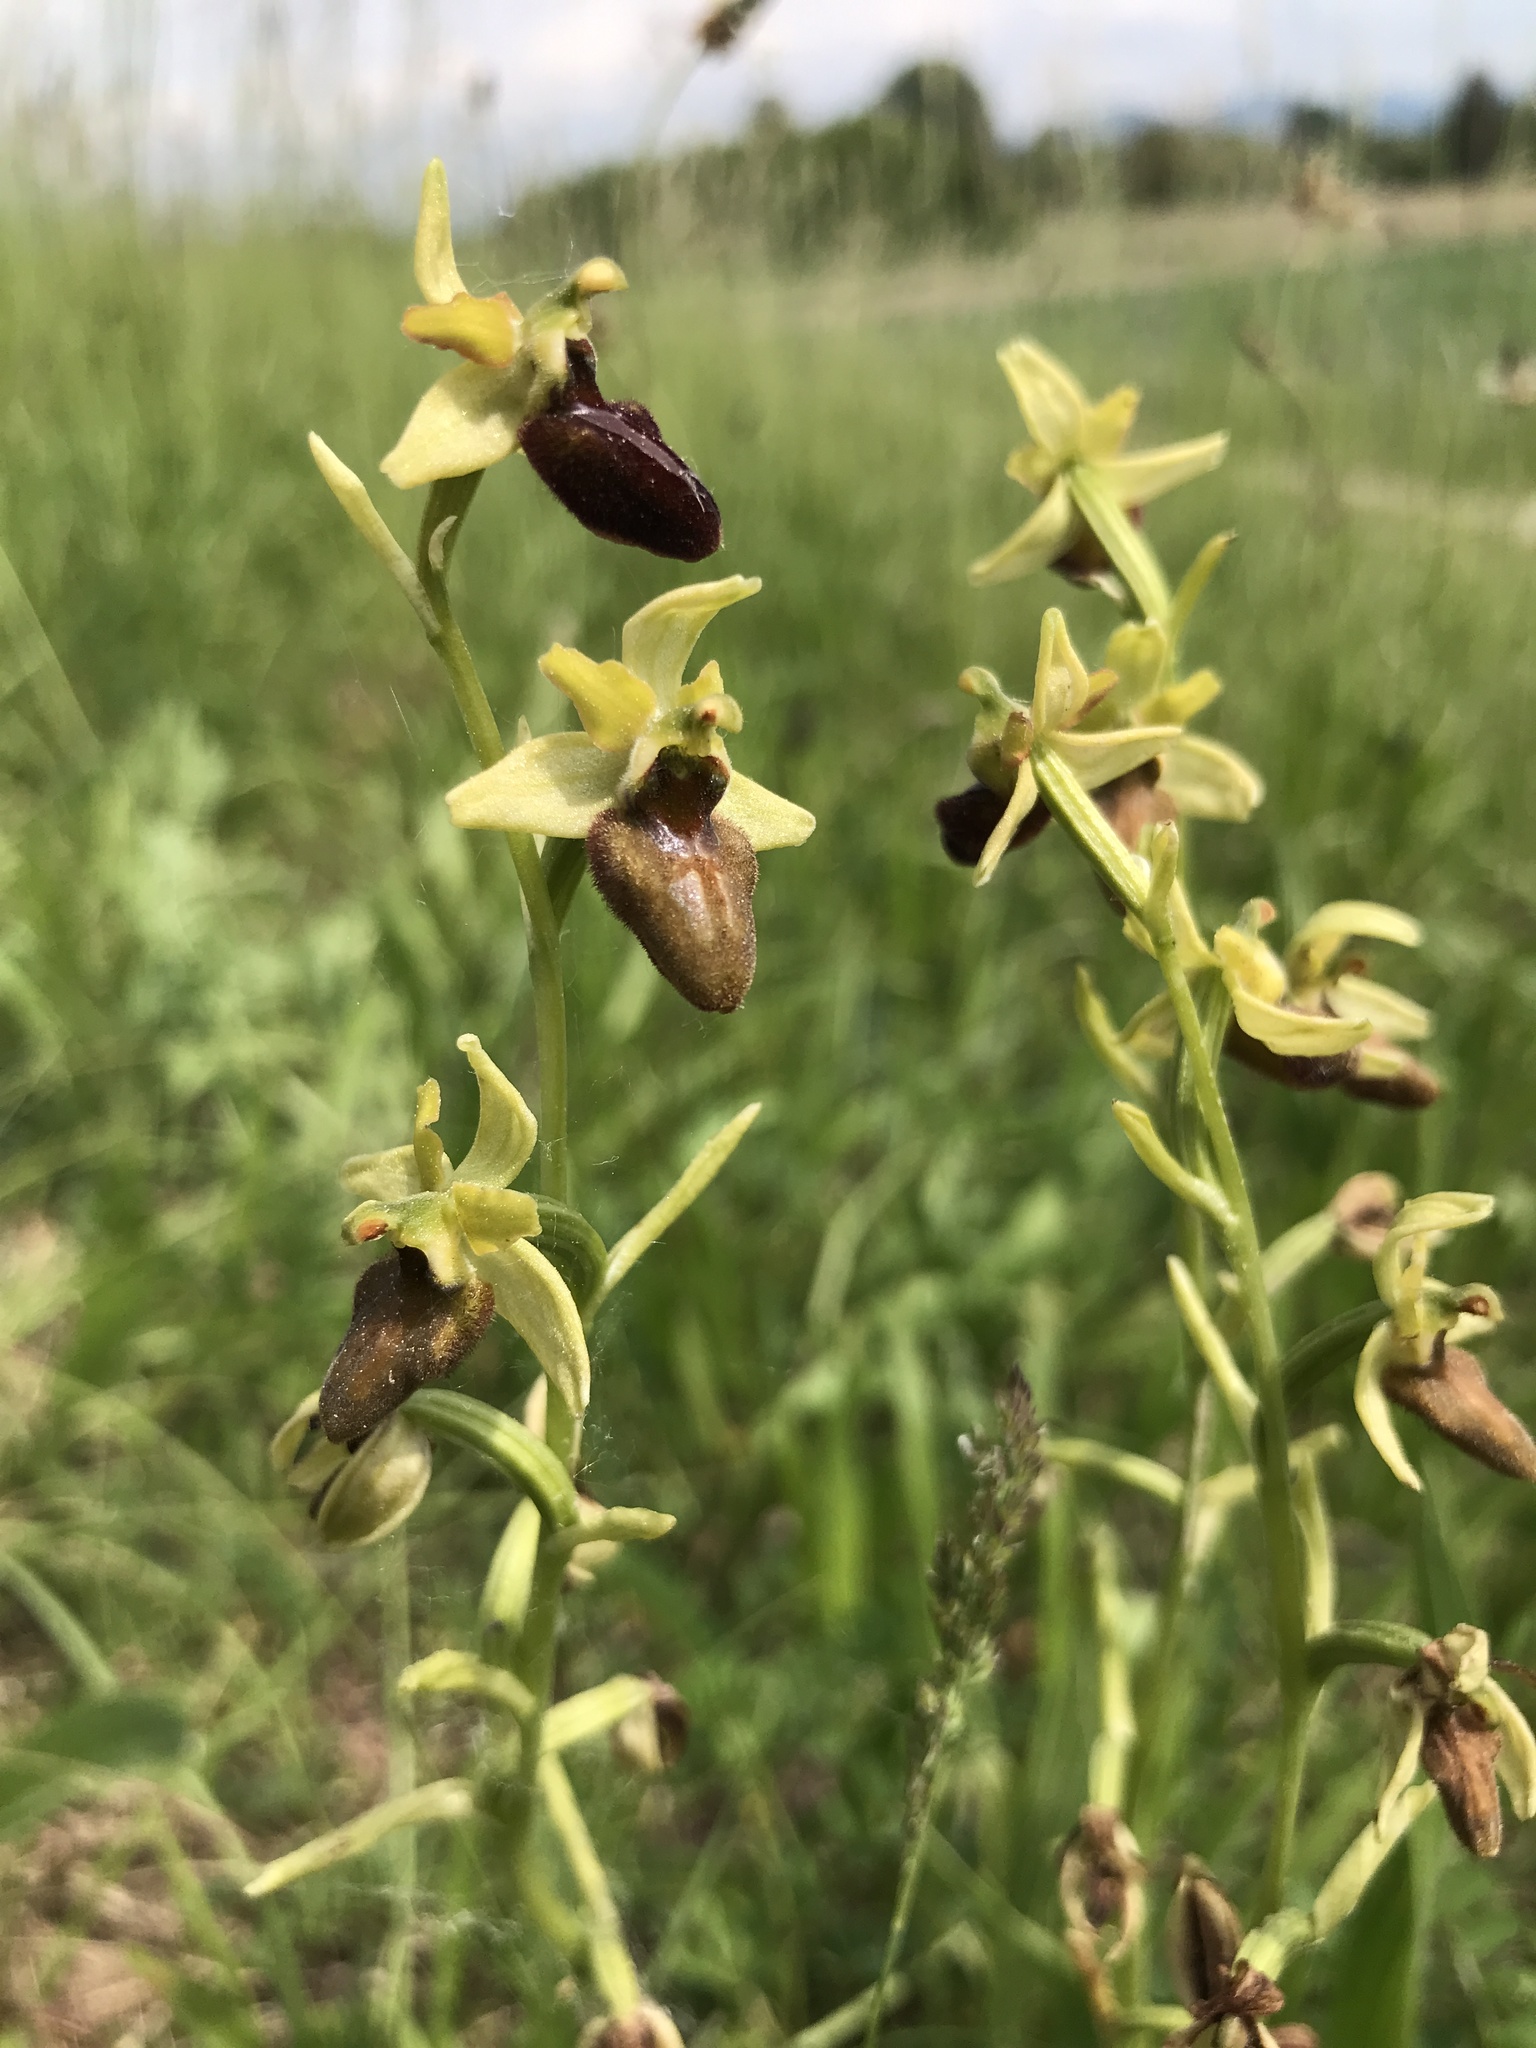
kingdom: Plantae
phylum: Tracheophyta
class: Liliopsida
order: Asparagales
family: Orchidaceae
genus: Ophrys
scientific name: Ophrys sphegodes
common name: Early spider-orchid
